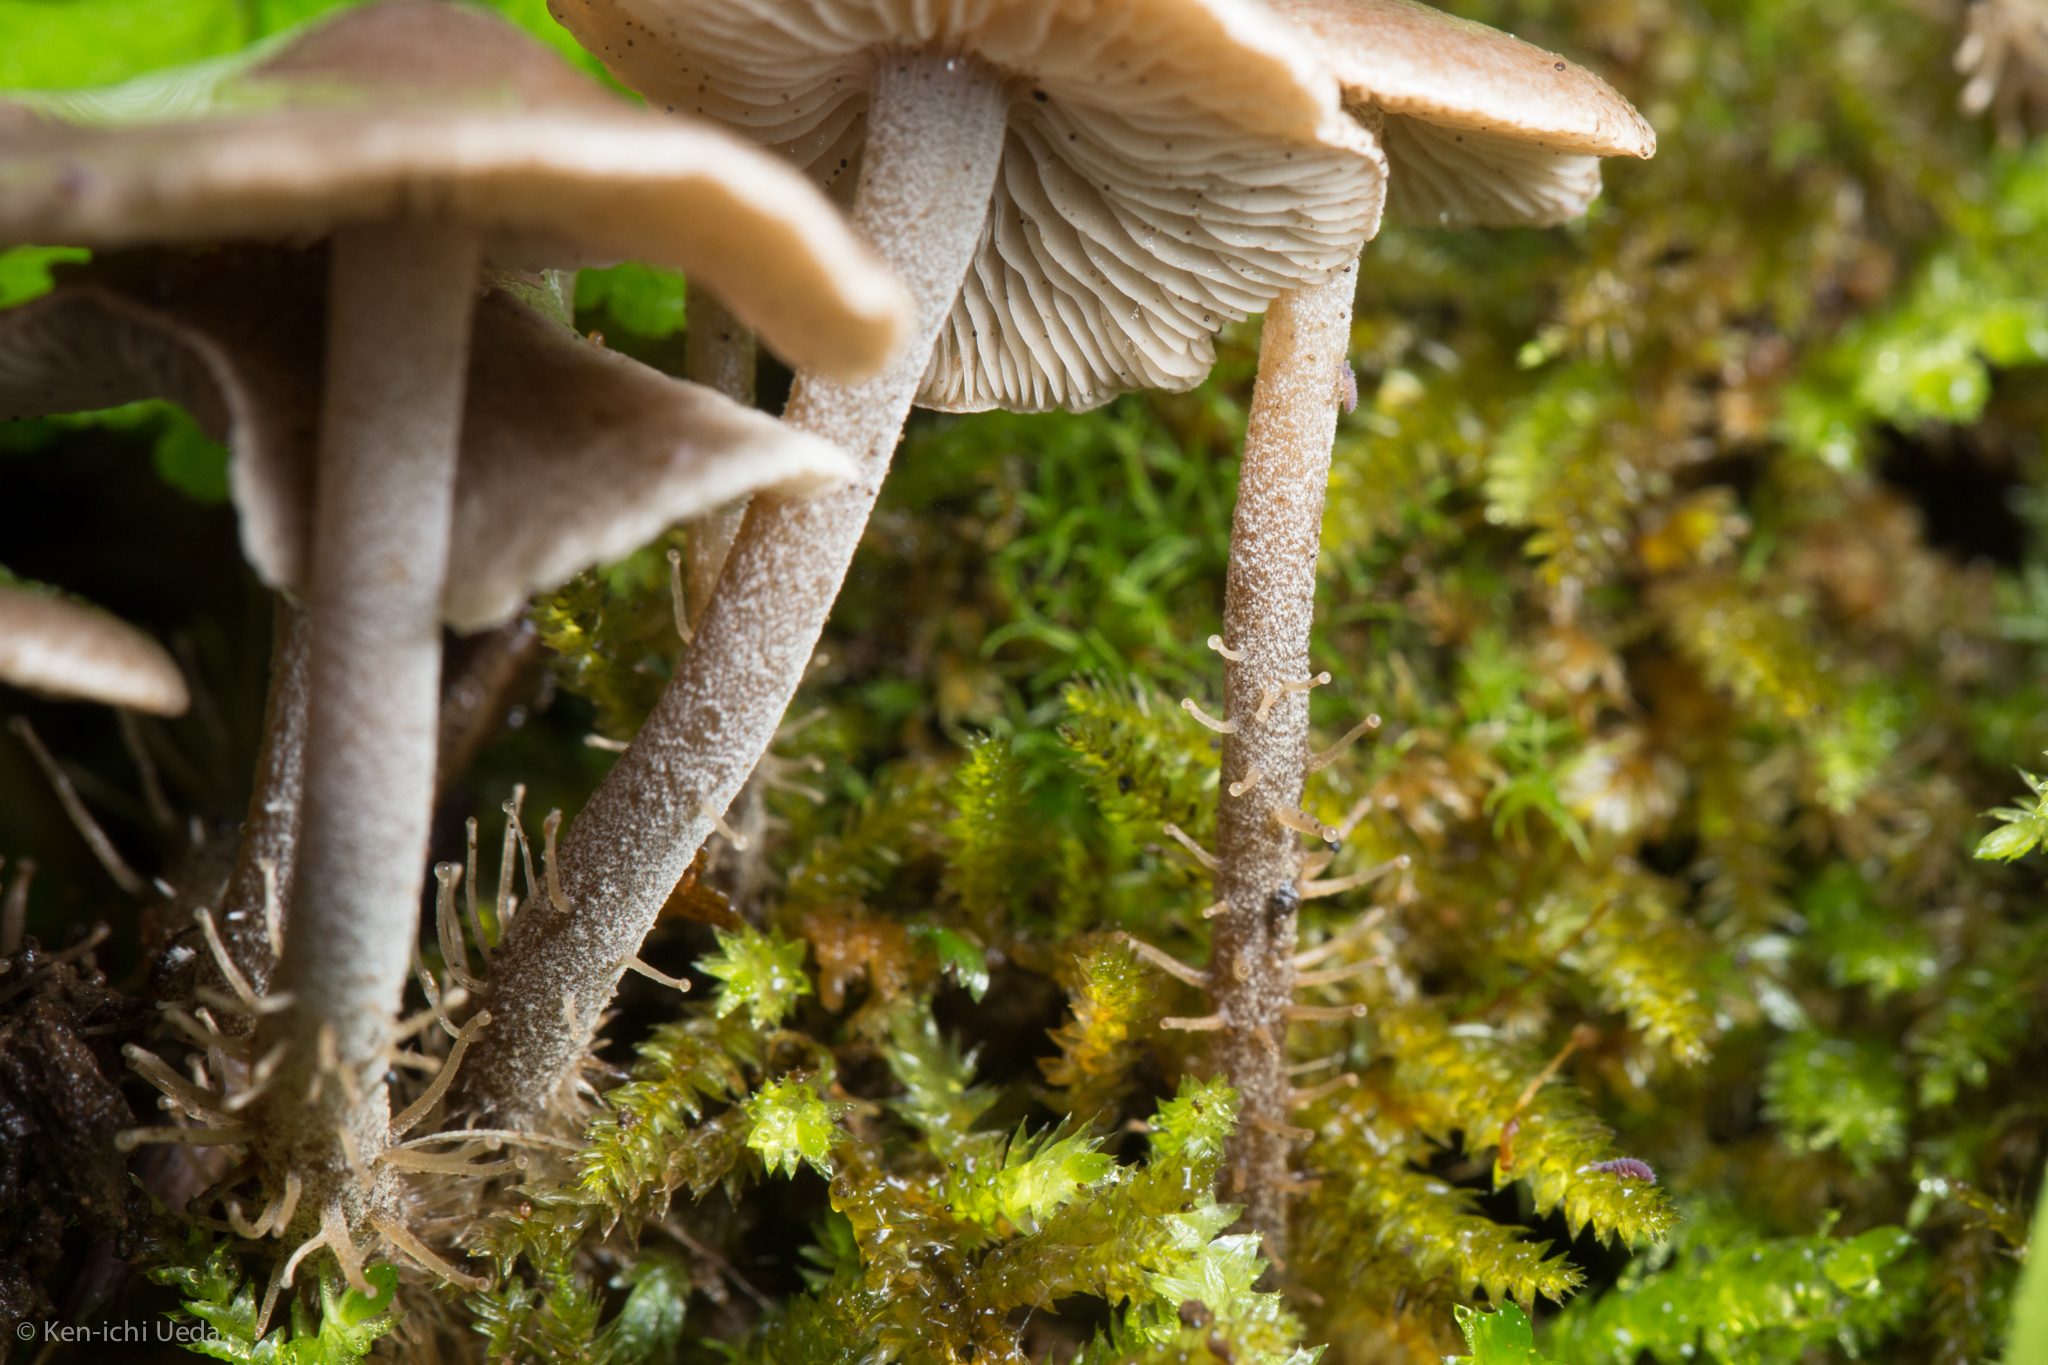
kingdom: Fungi
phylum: Basidiomycota
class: Agaricomycetes
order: Agaricales
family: Tricholomataceae
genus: Dendrocollybia
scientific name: Dendrocollybia racemosa
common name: Branched shanklet
